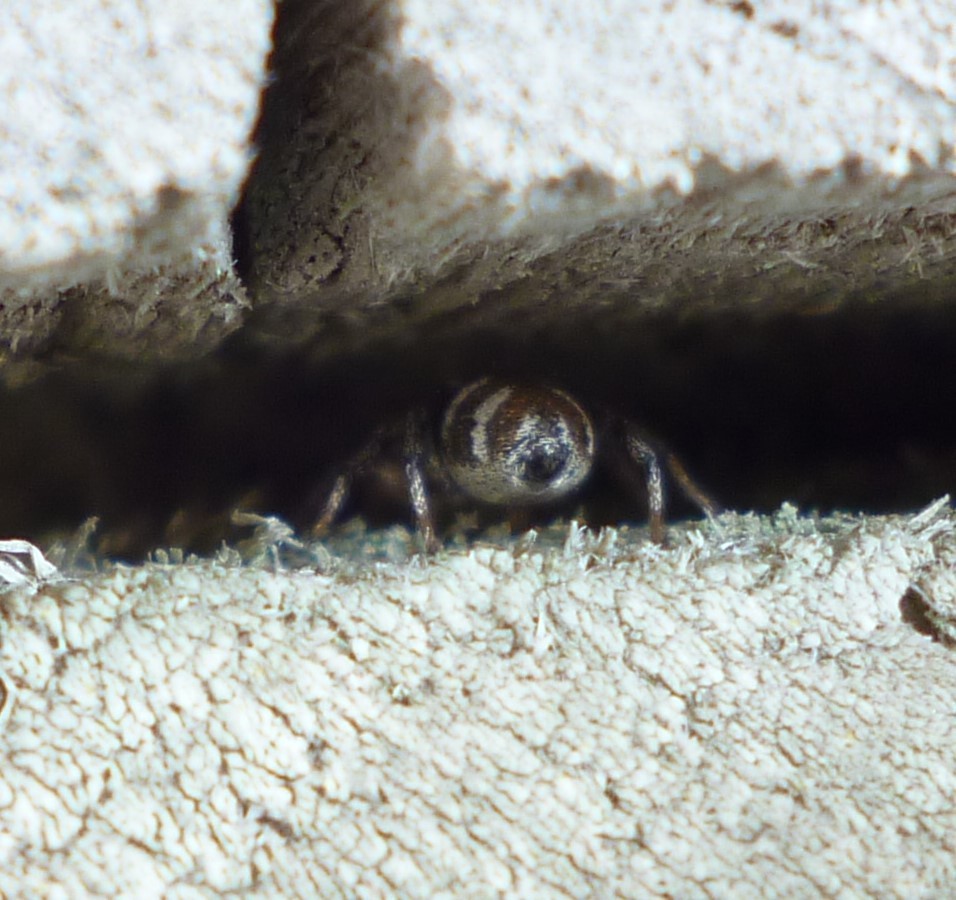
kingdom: Animalia
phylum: Arthropoda
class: Arachnida
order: Araneae
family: Salticidae
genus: Salticus
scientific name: Salticus scenicus
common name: Zebra jumper
